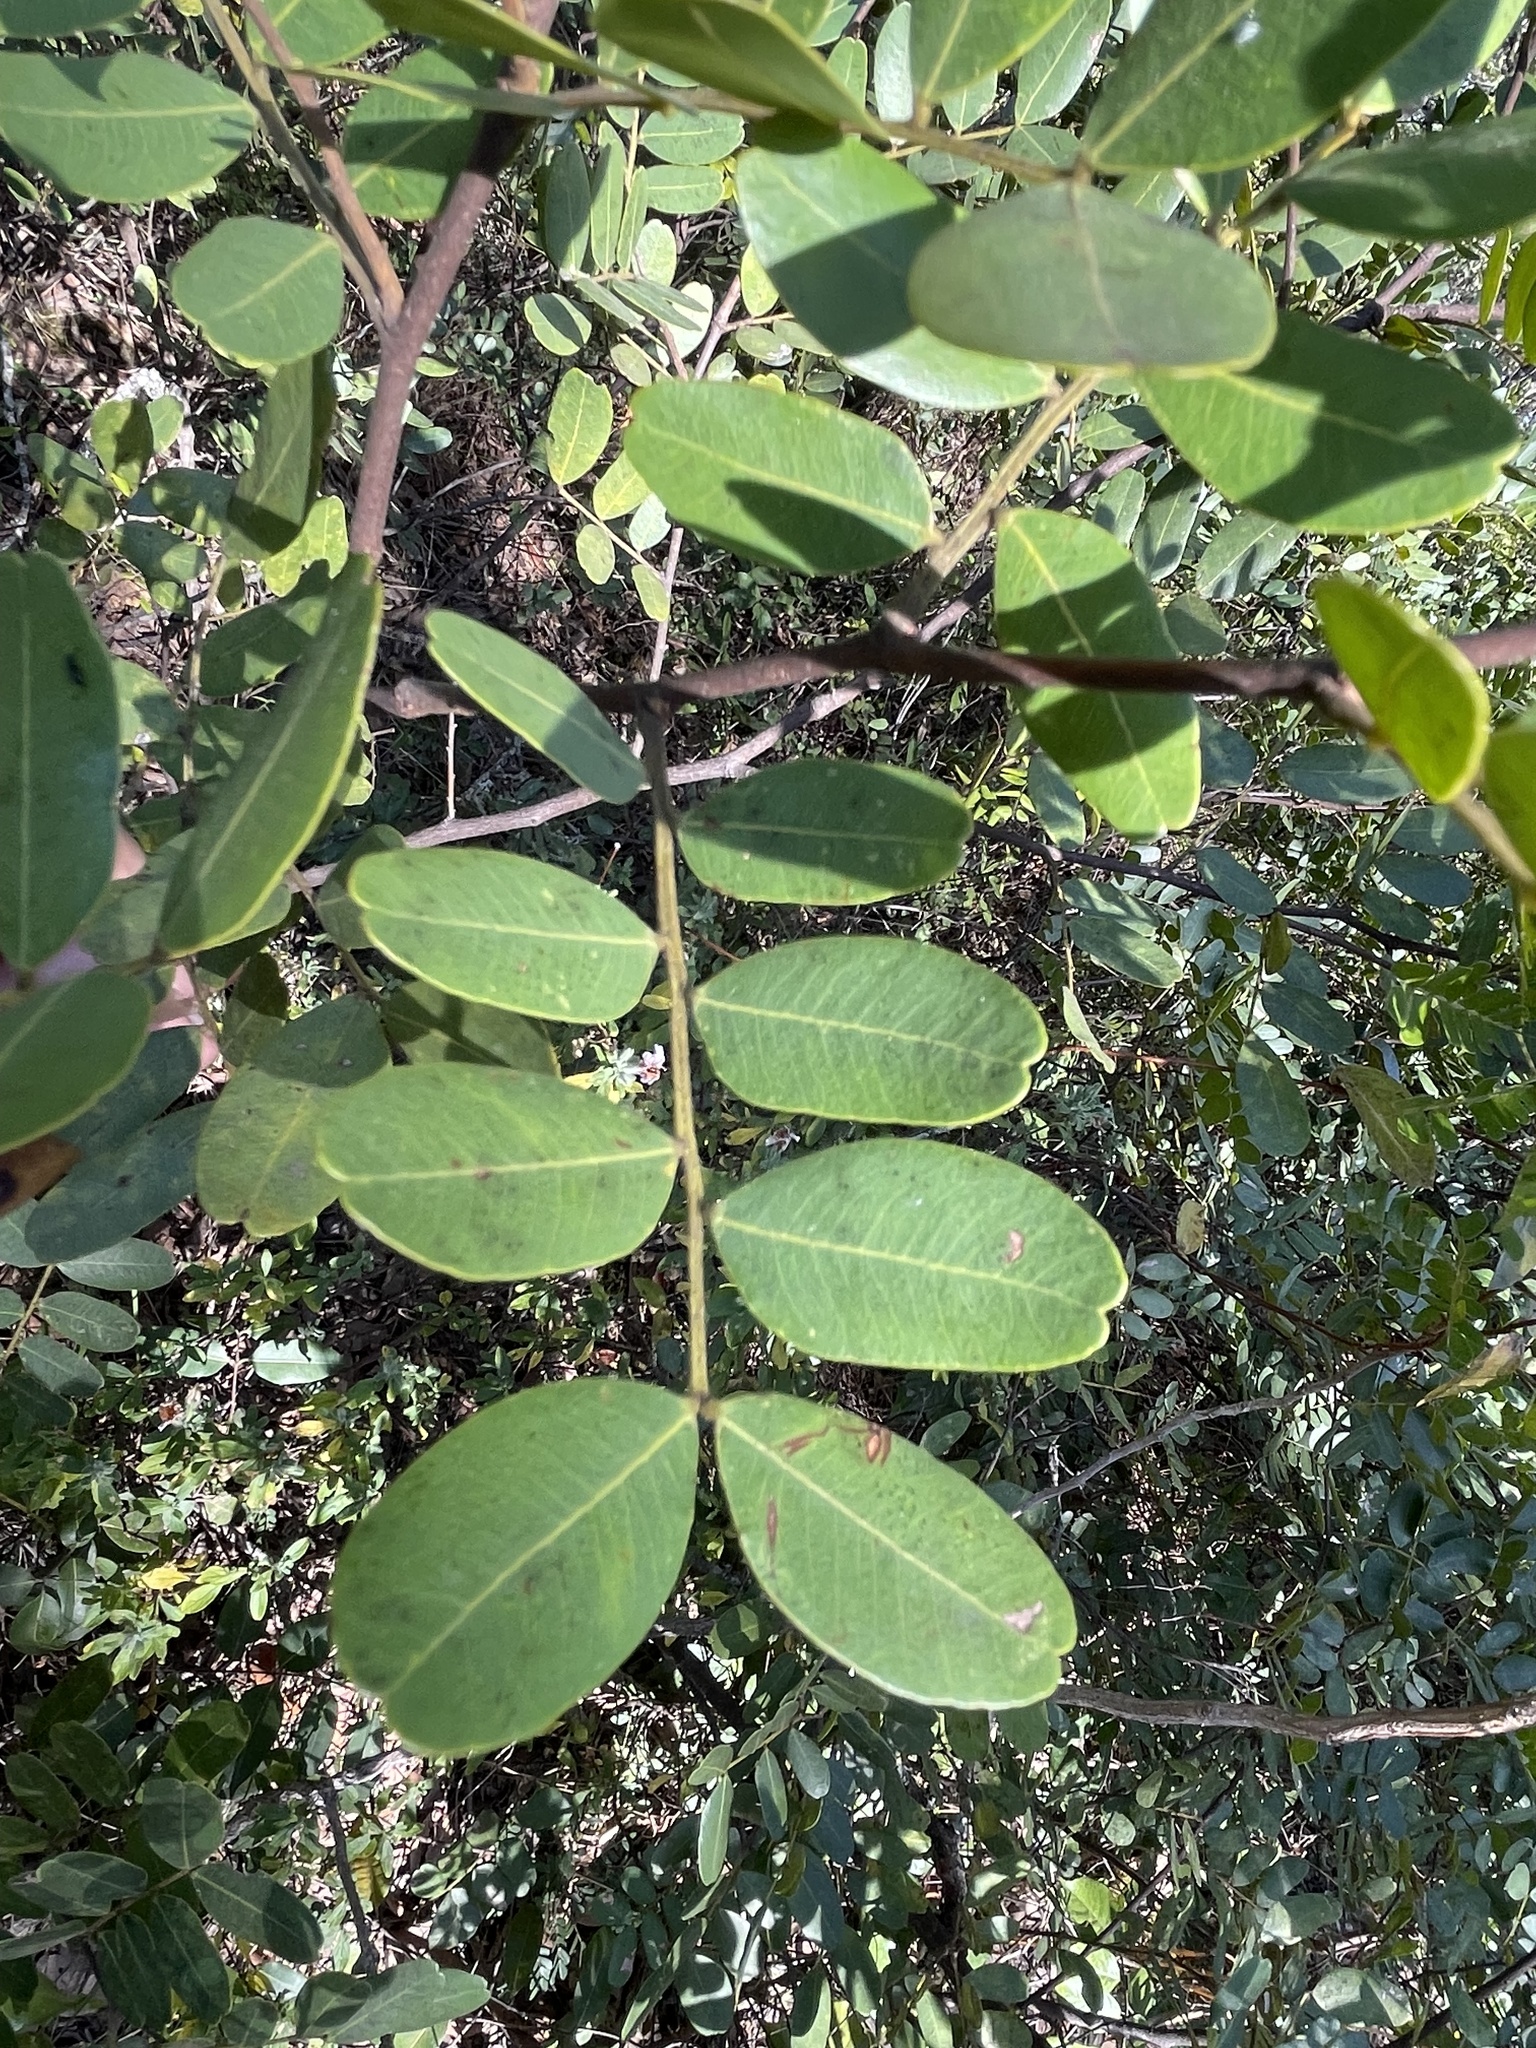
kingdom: Plantae
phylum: Tracheophyta
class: Magnoliopsida
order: Fabales
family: Fabaceae
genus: Copaifera
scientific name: Copaifera baumiana
